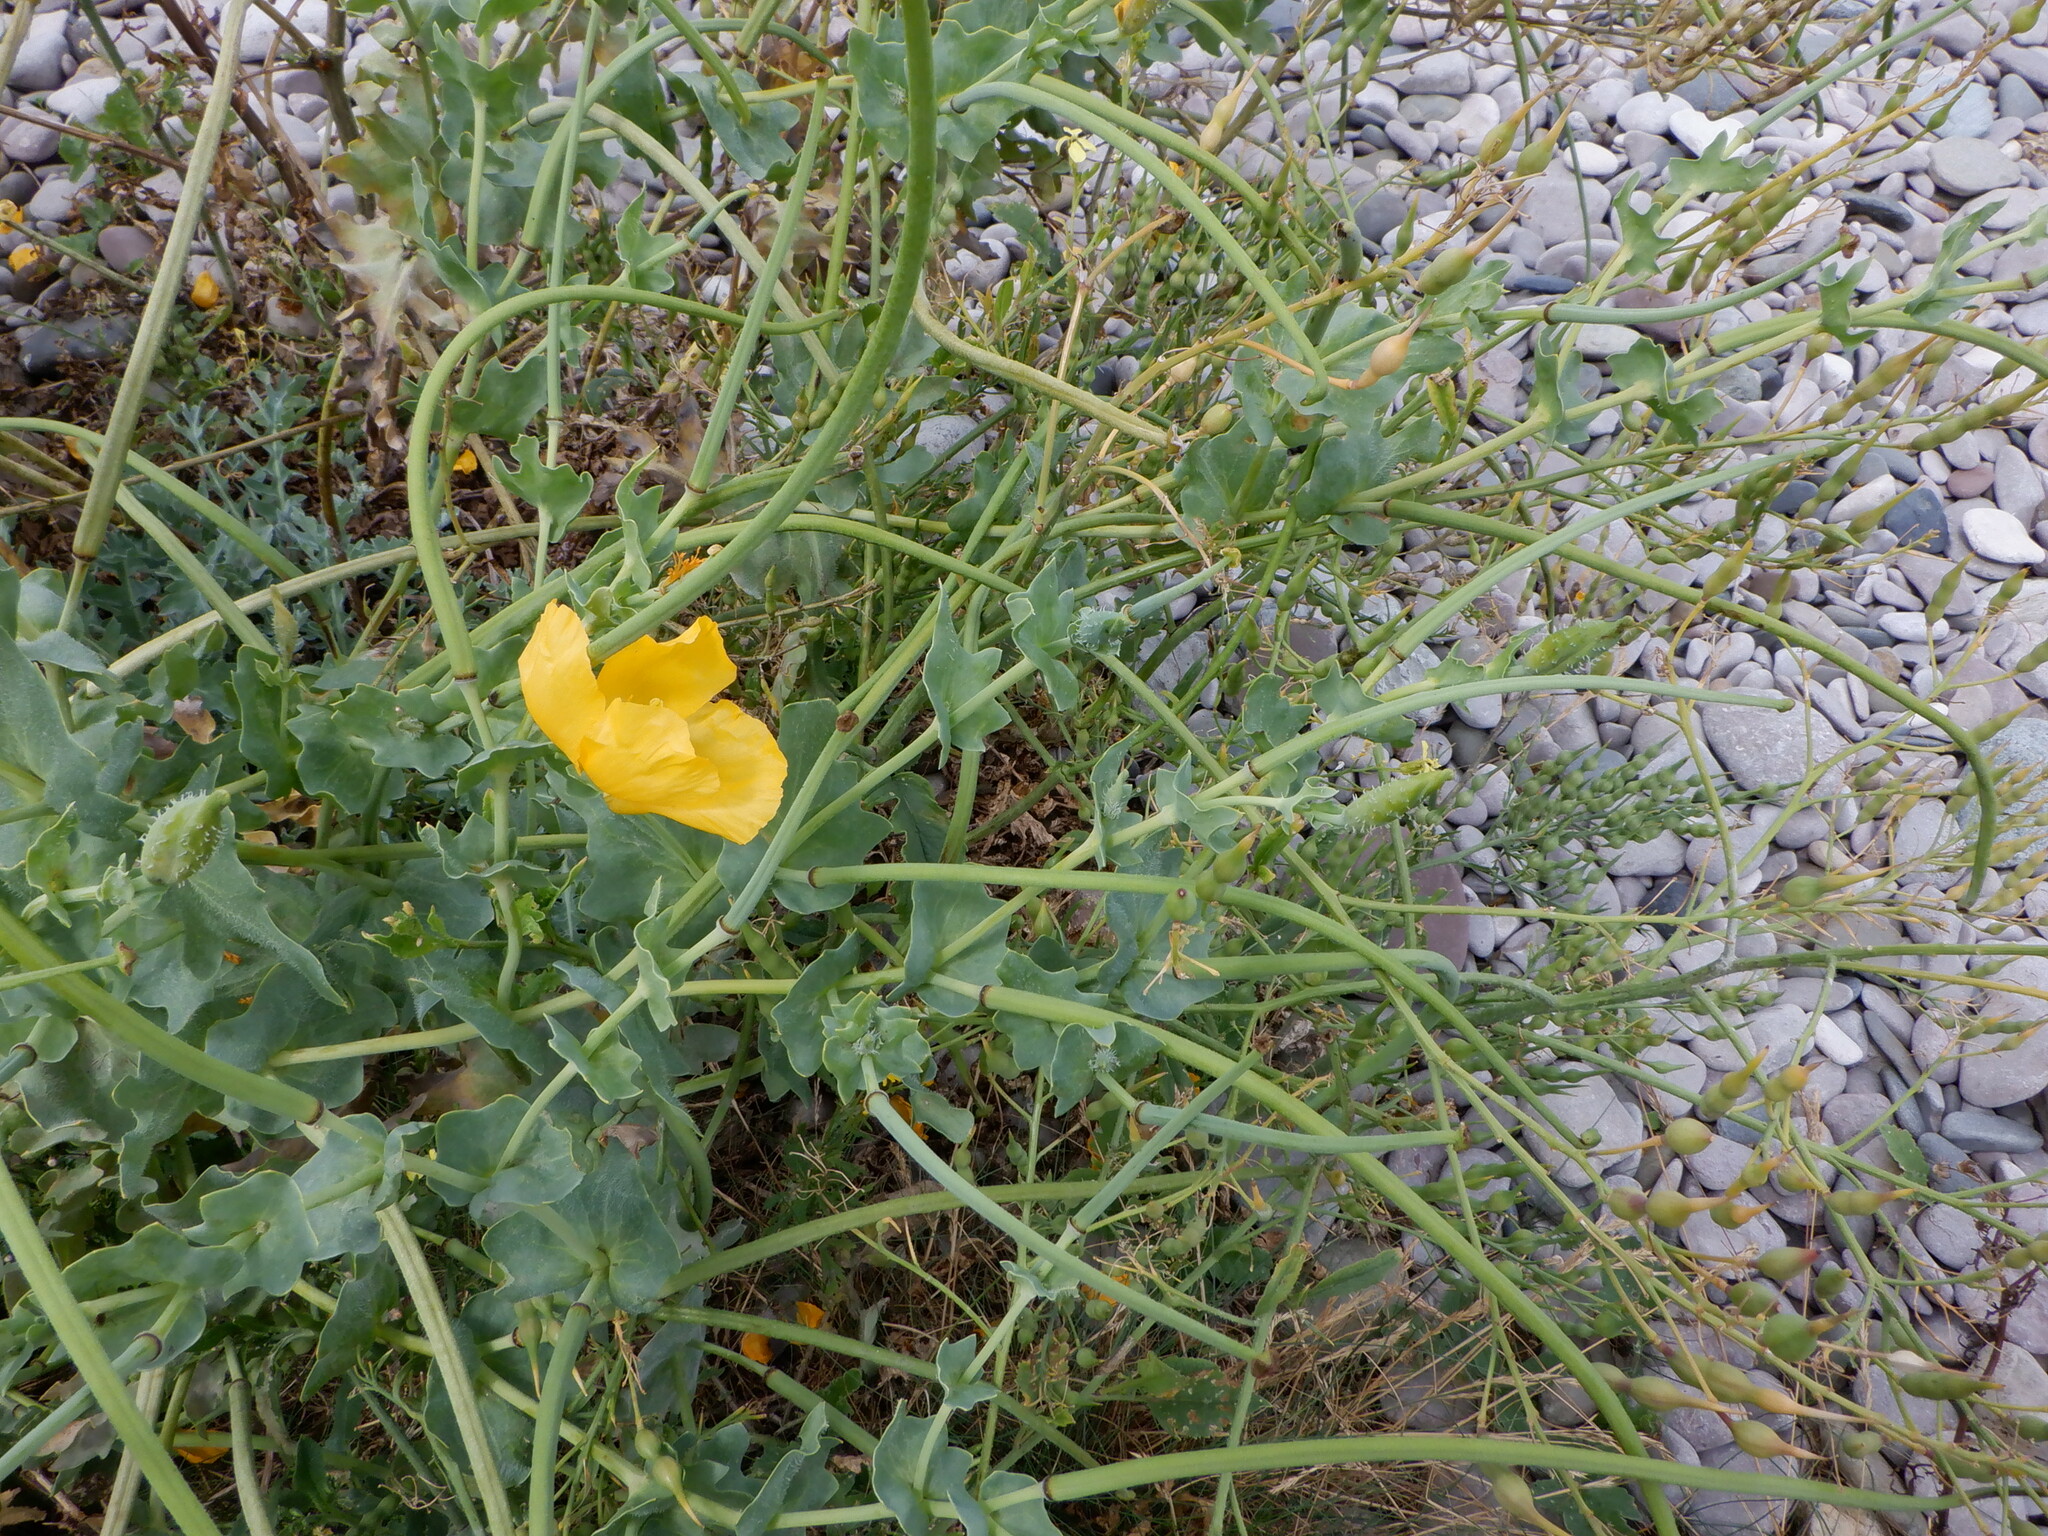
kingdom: Plantae
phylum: Tracheophyta
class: Magnoliopsida
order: Ranunculales
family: Papaveraceae
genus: Glaucium
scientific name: Glaucium flavum
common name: Yellow horned-poppy
